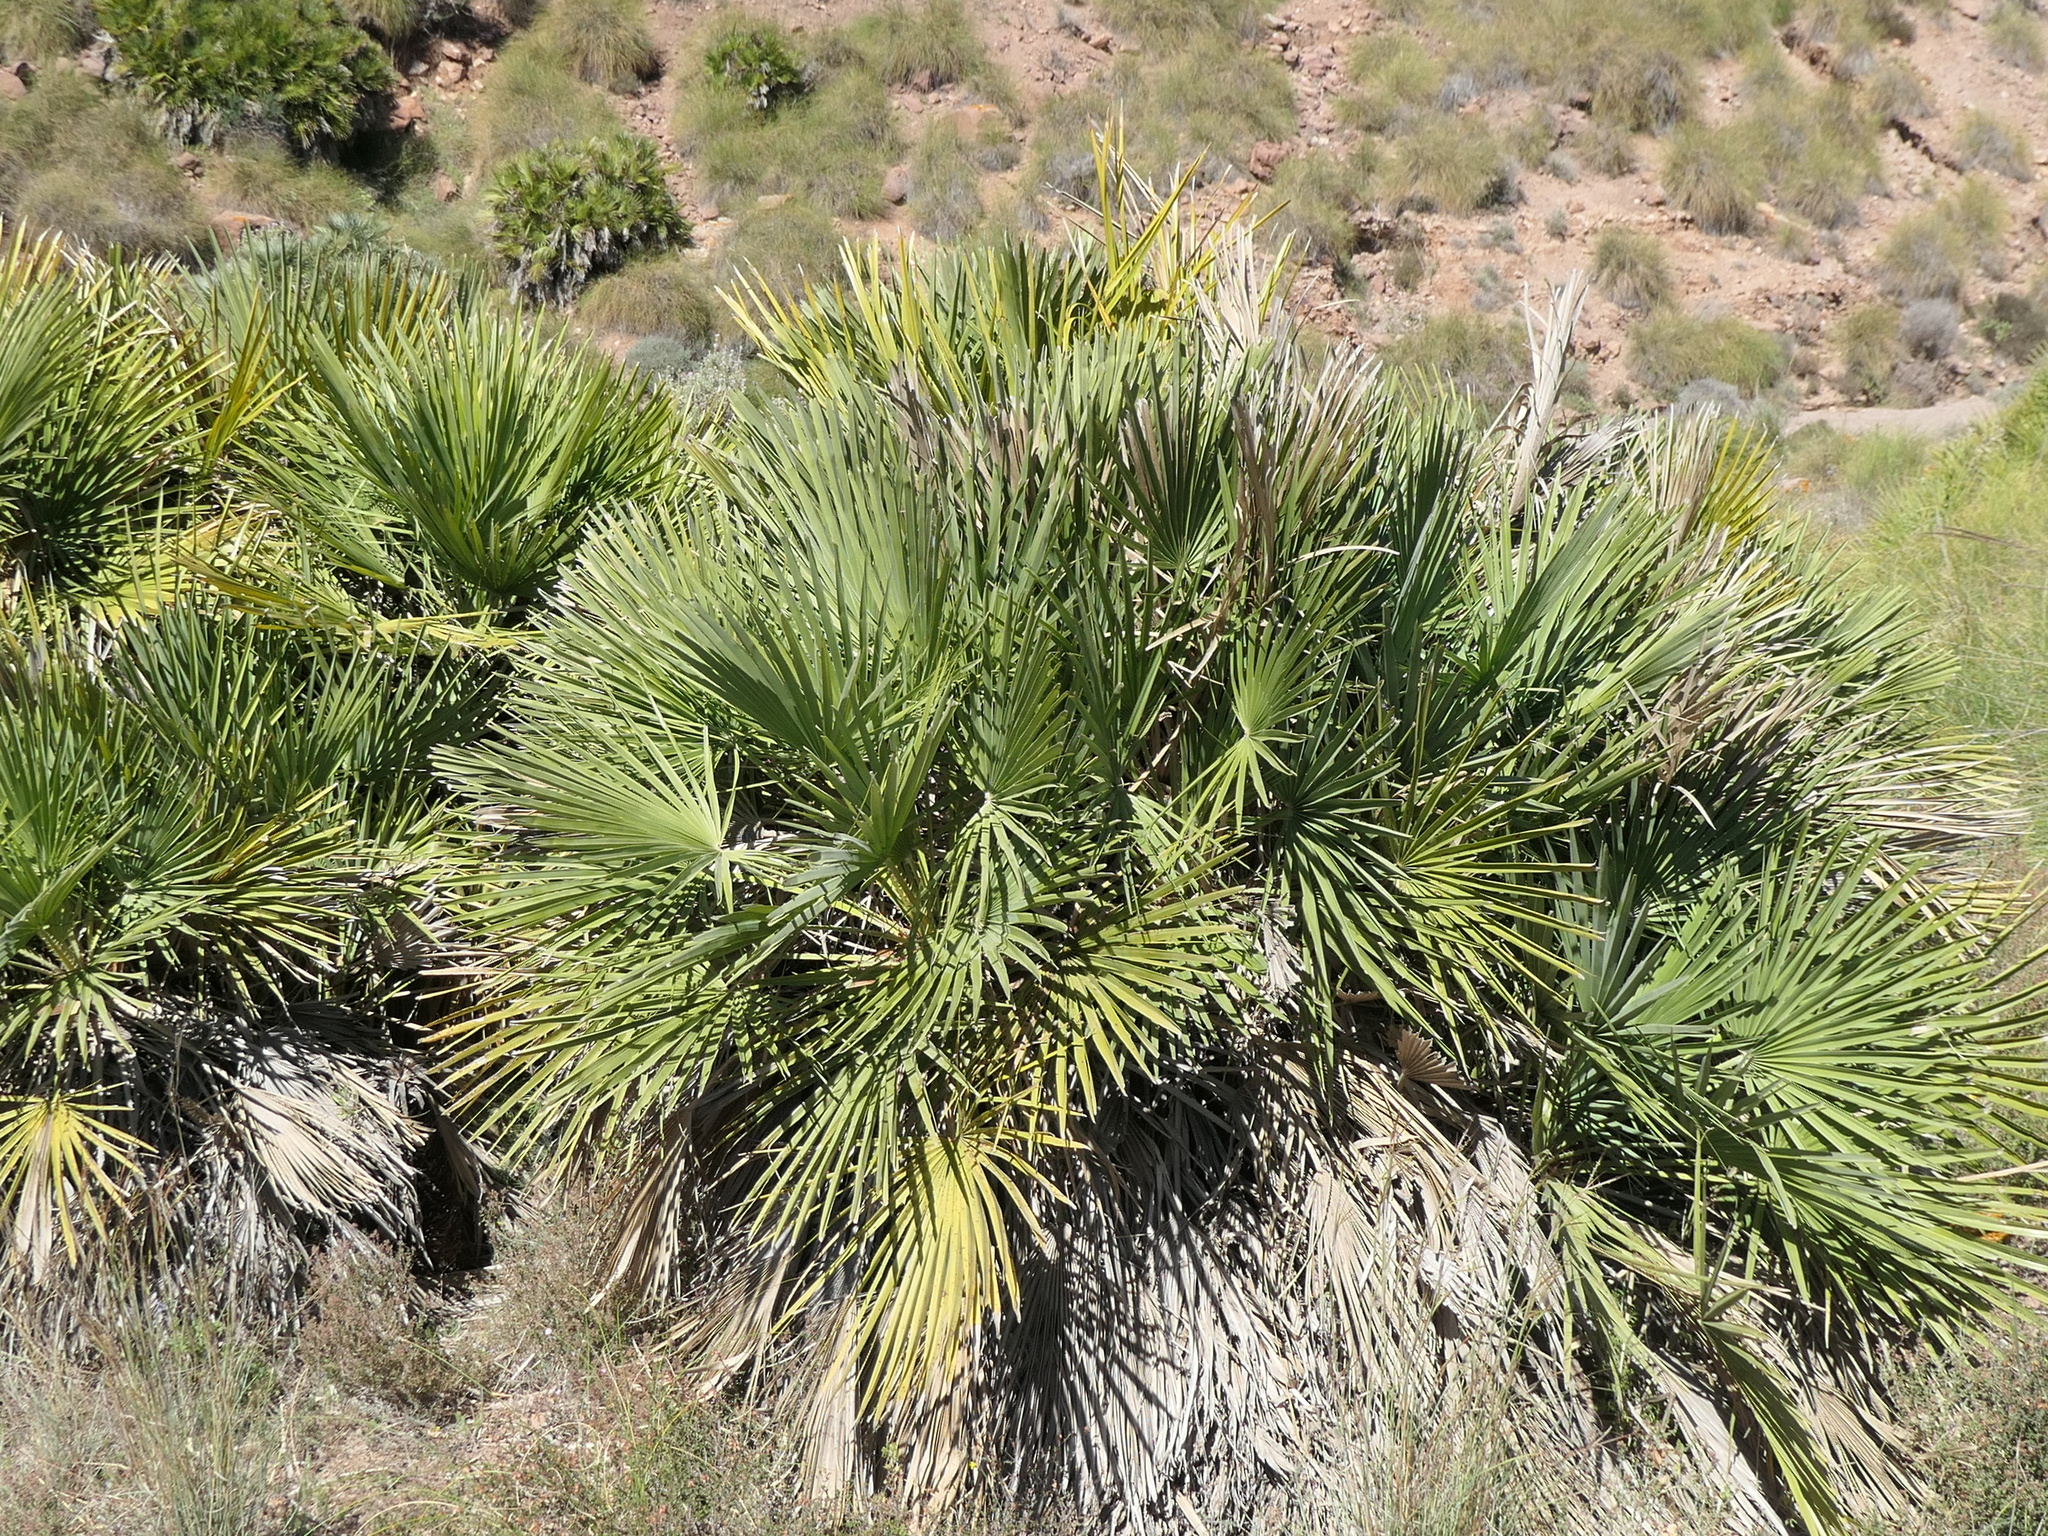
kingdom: Plantae
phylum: Tracheophyta
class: Liliopsida
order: Arecales
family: Arecaceae
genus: Chamaerops
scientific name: Chamaerops humilis
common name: Dwarf fan palm
